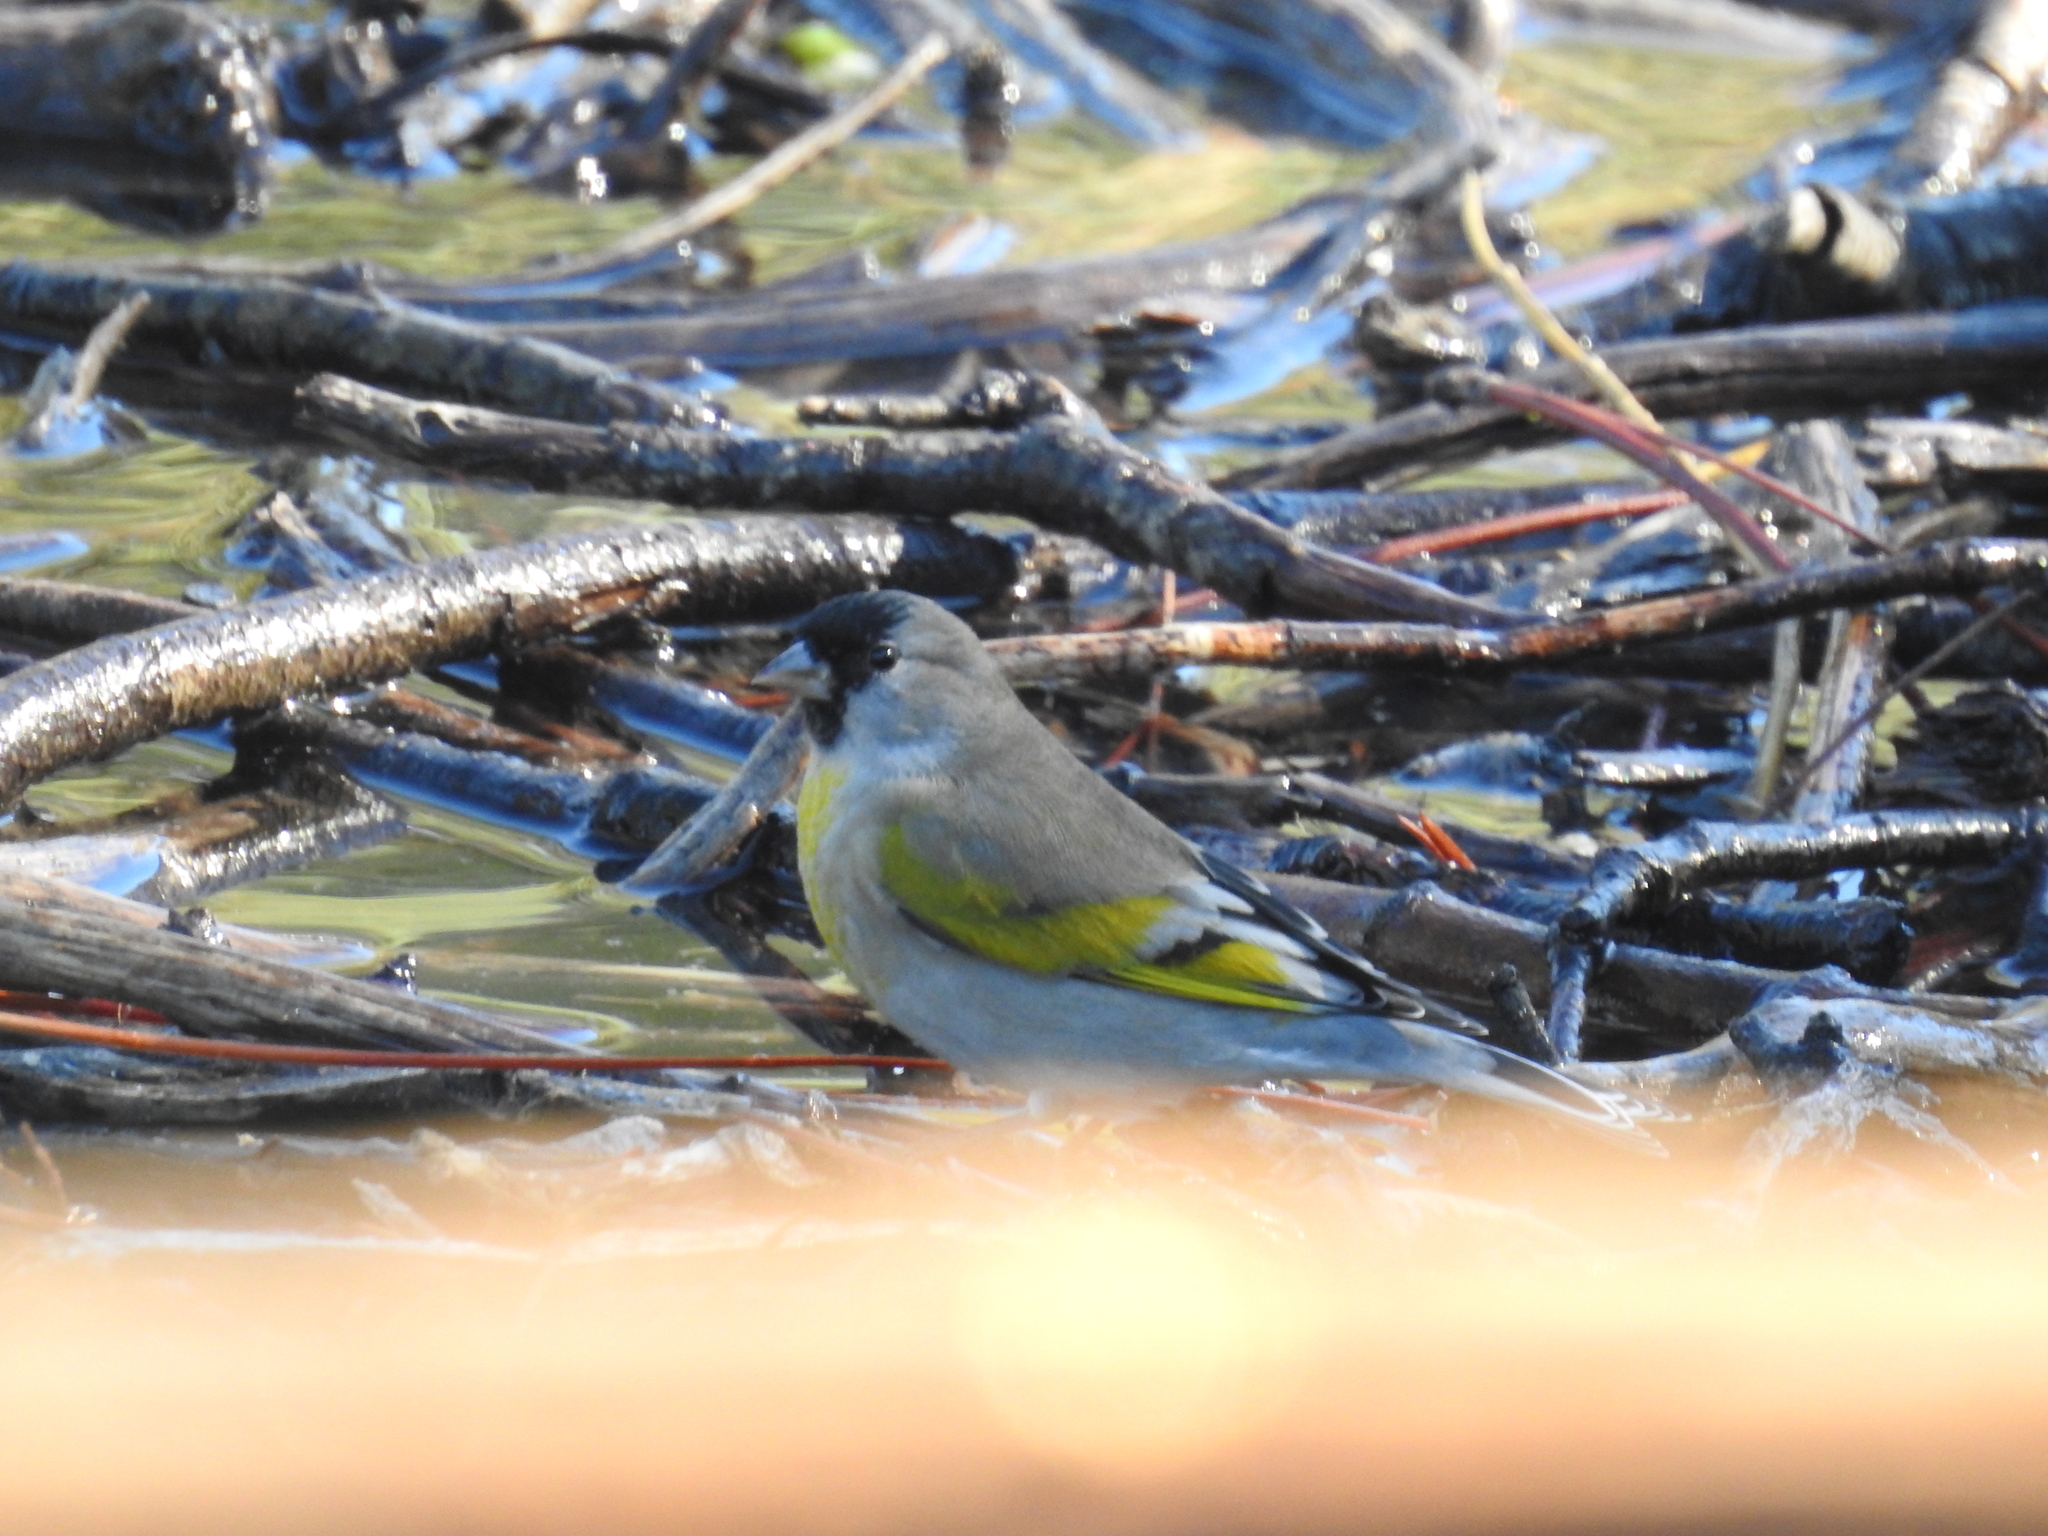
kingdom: Animalia
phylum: Chordata
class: Aves
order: Passeriformes
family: Fringillidae
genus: Spinus
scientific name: Spinus lawrencei
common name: Lawrence's goldfinch
